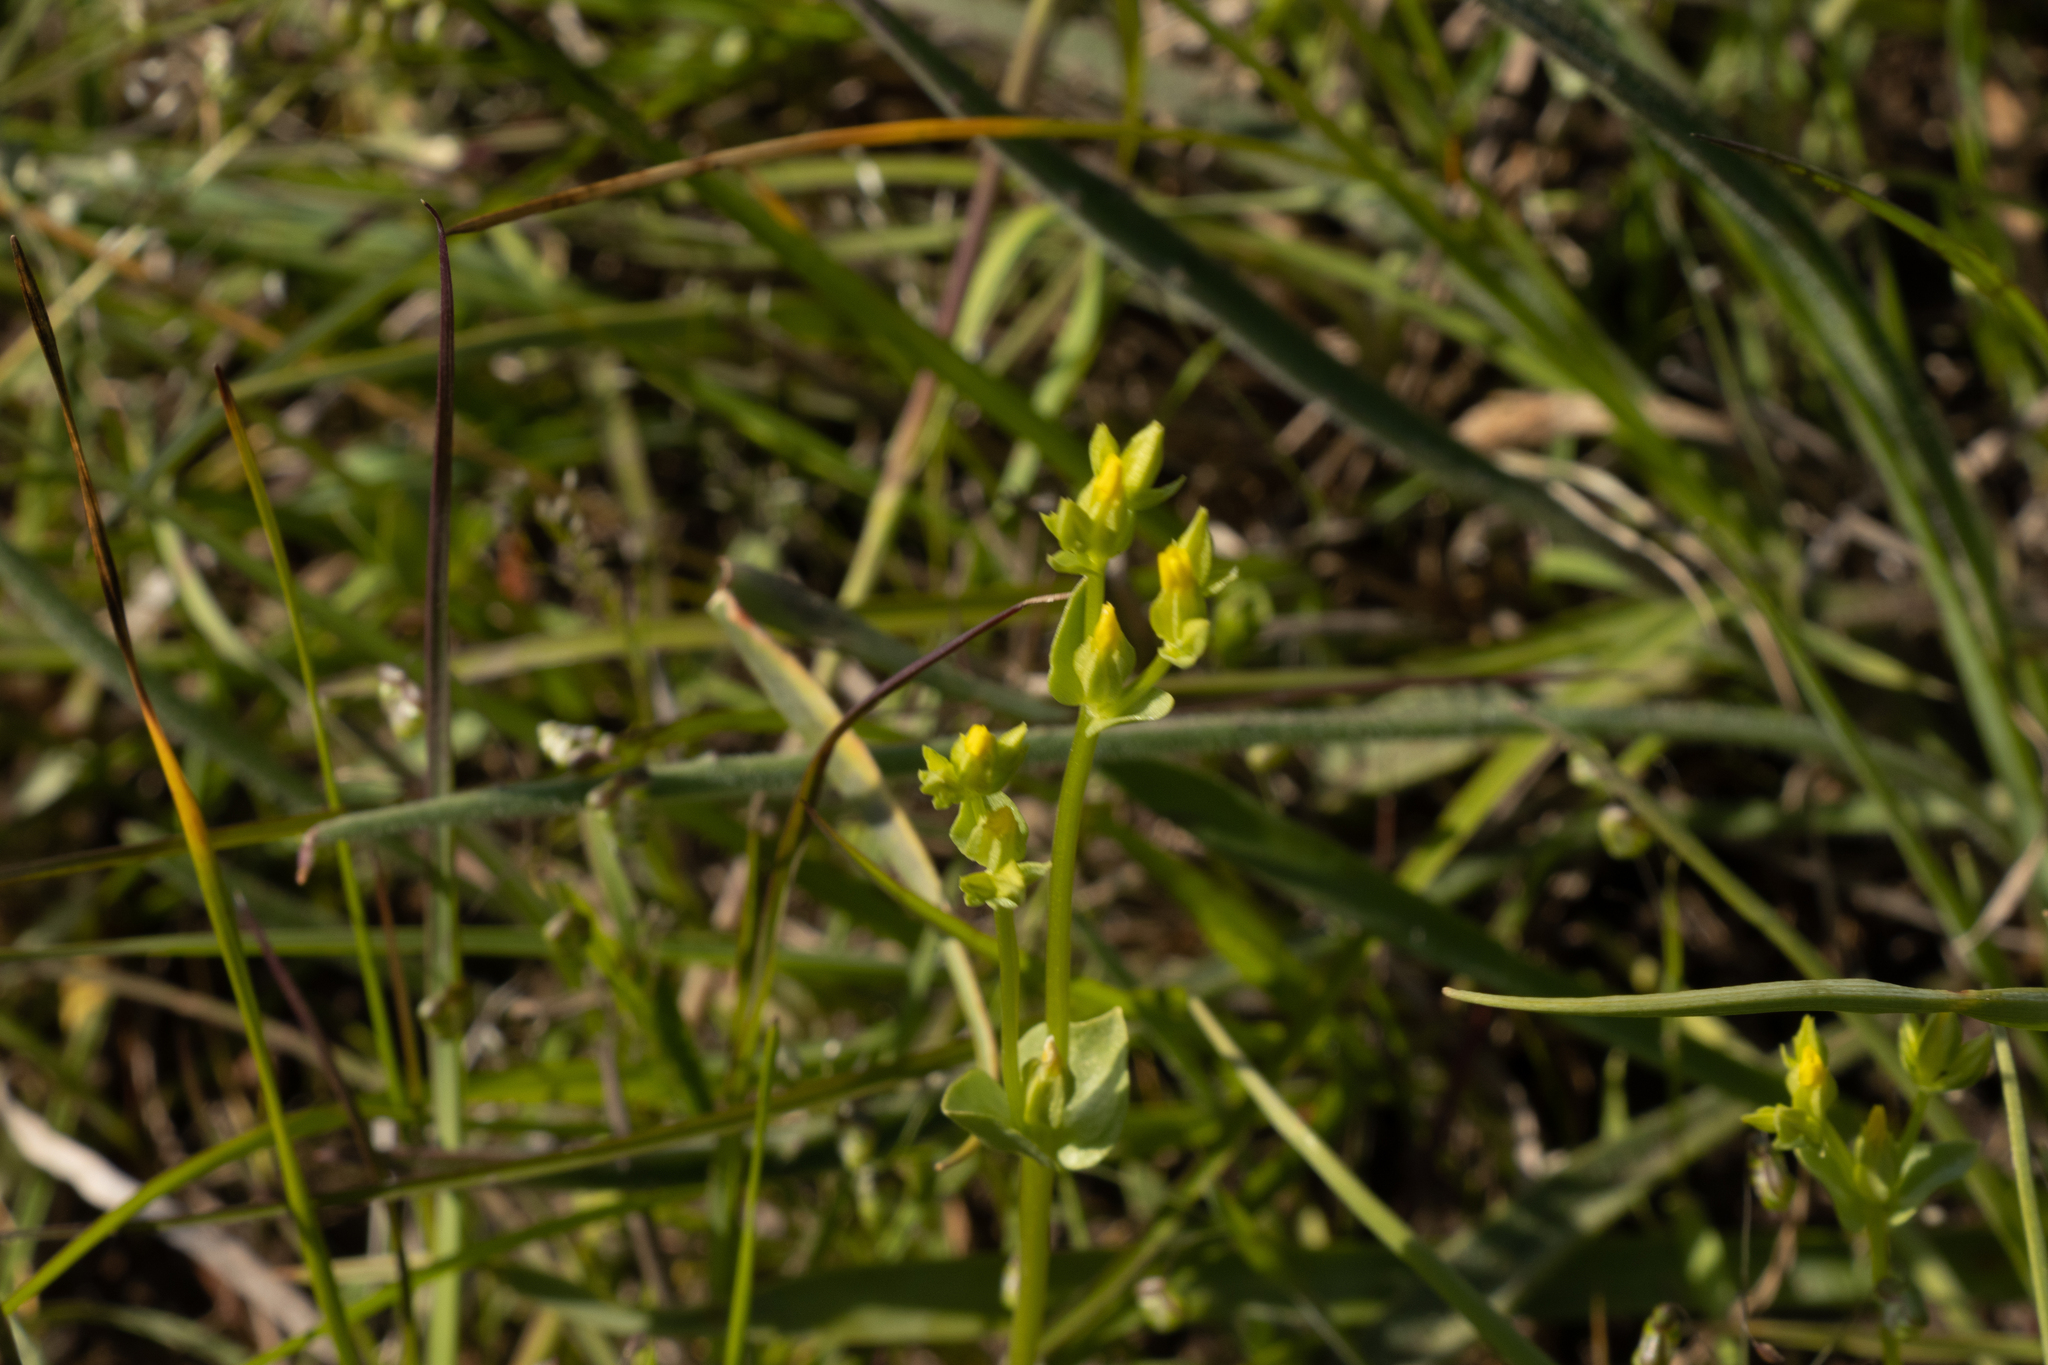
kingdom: Plantae
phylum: Tracheophyta
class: Magnoliopsida
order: Gentianales
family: Gentianaceae
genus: Sebaea
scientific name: Sebaea ovata
